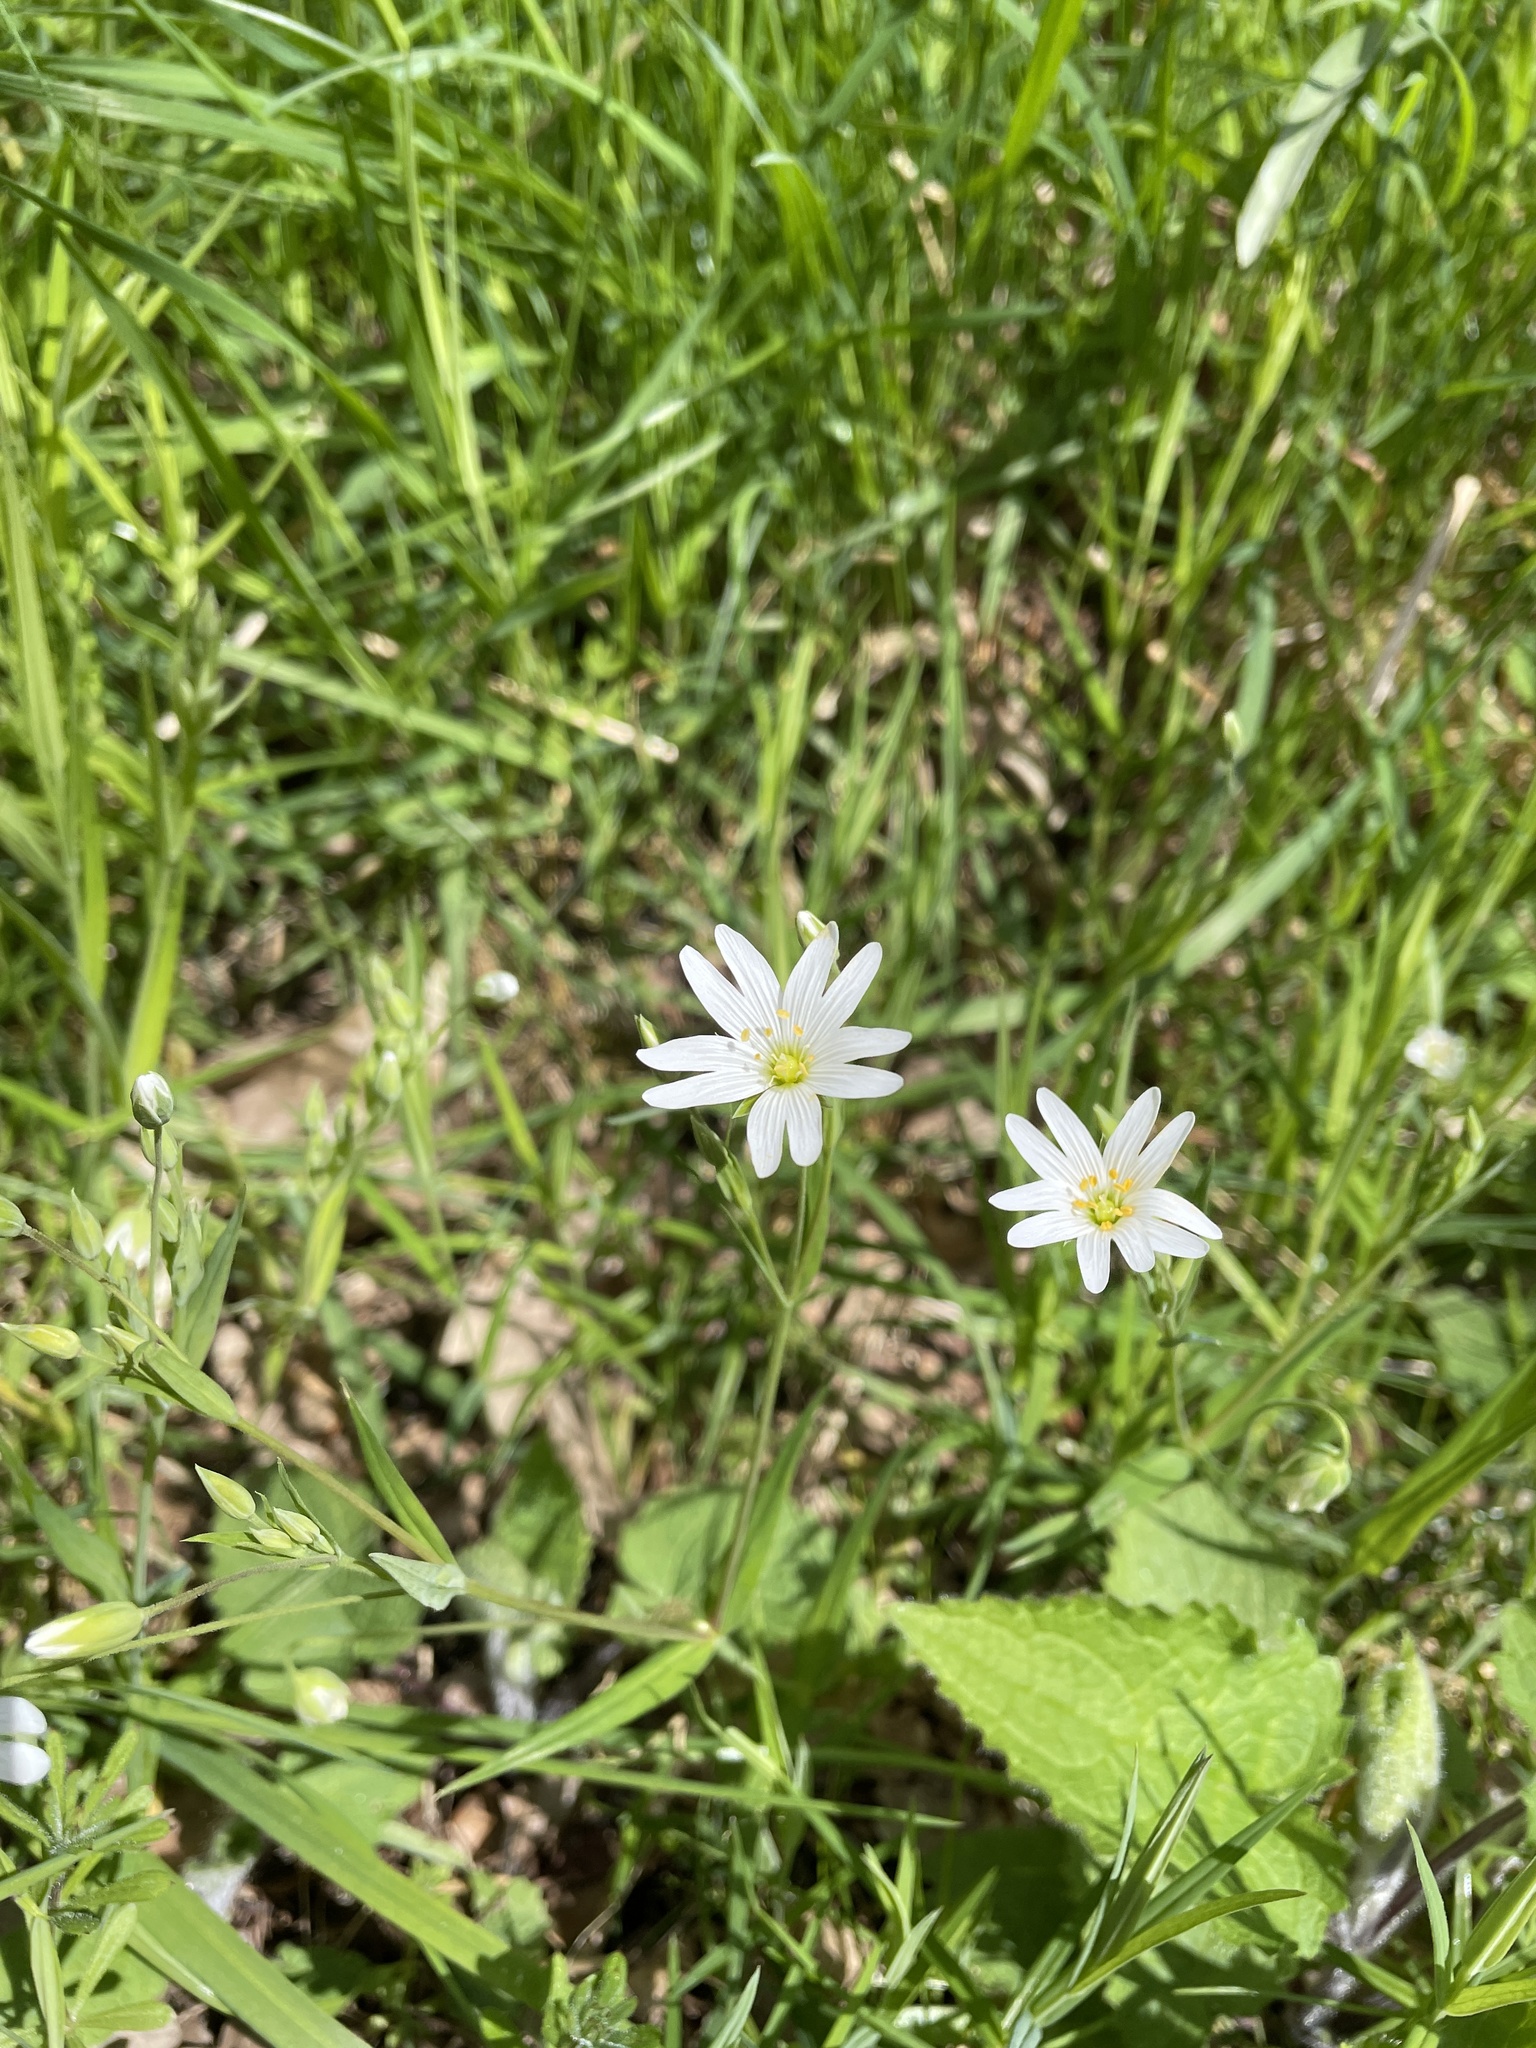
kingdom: Plantae
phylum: Tracheophyta
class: Magnoliopsida
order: Caryophyllales
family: Caryophyllaceae
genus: Rabelera
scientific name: Rabelera holostea
